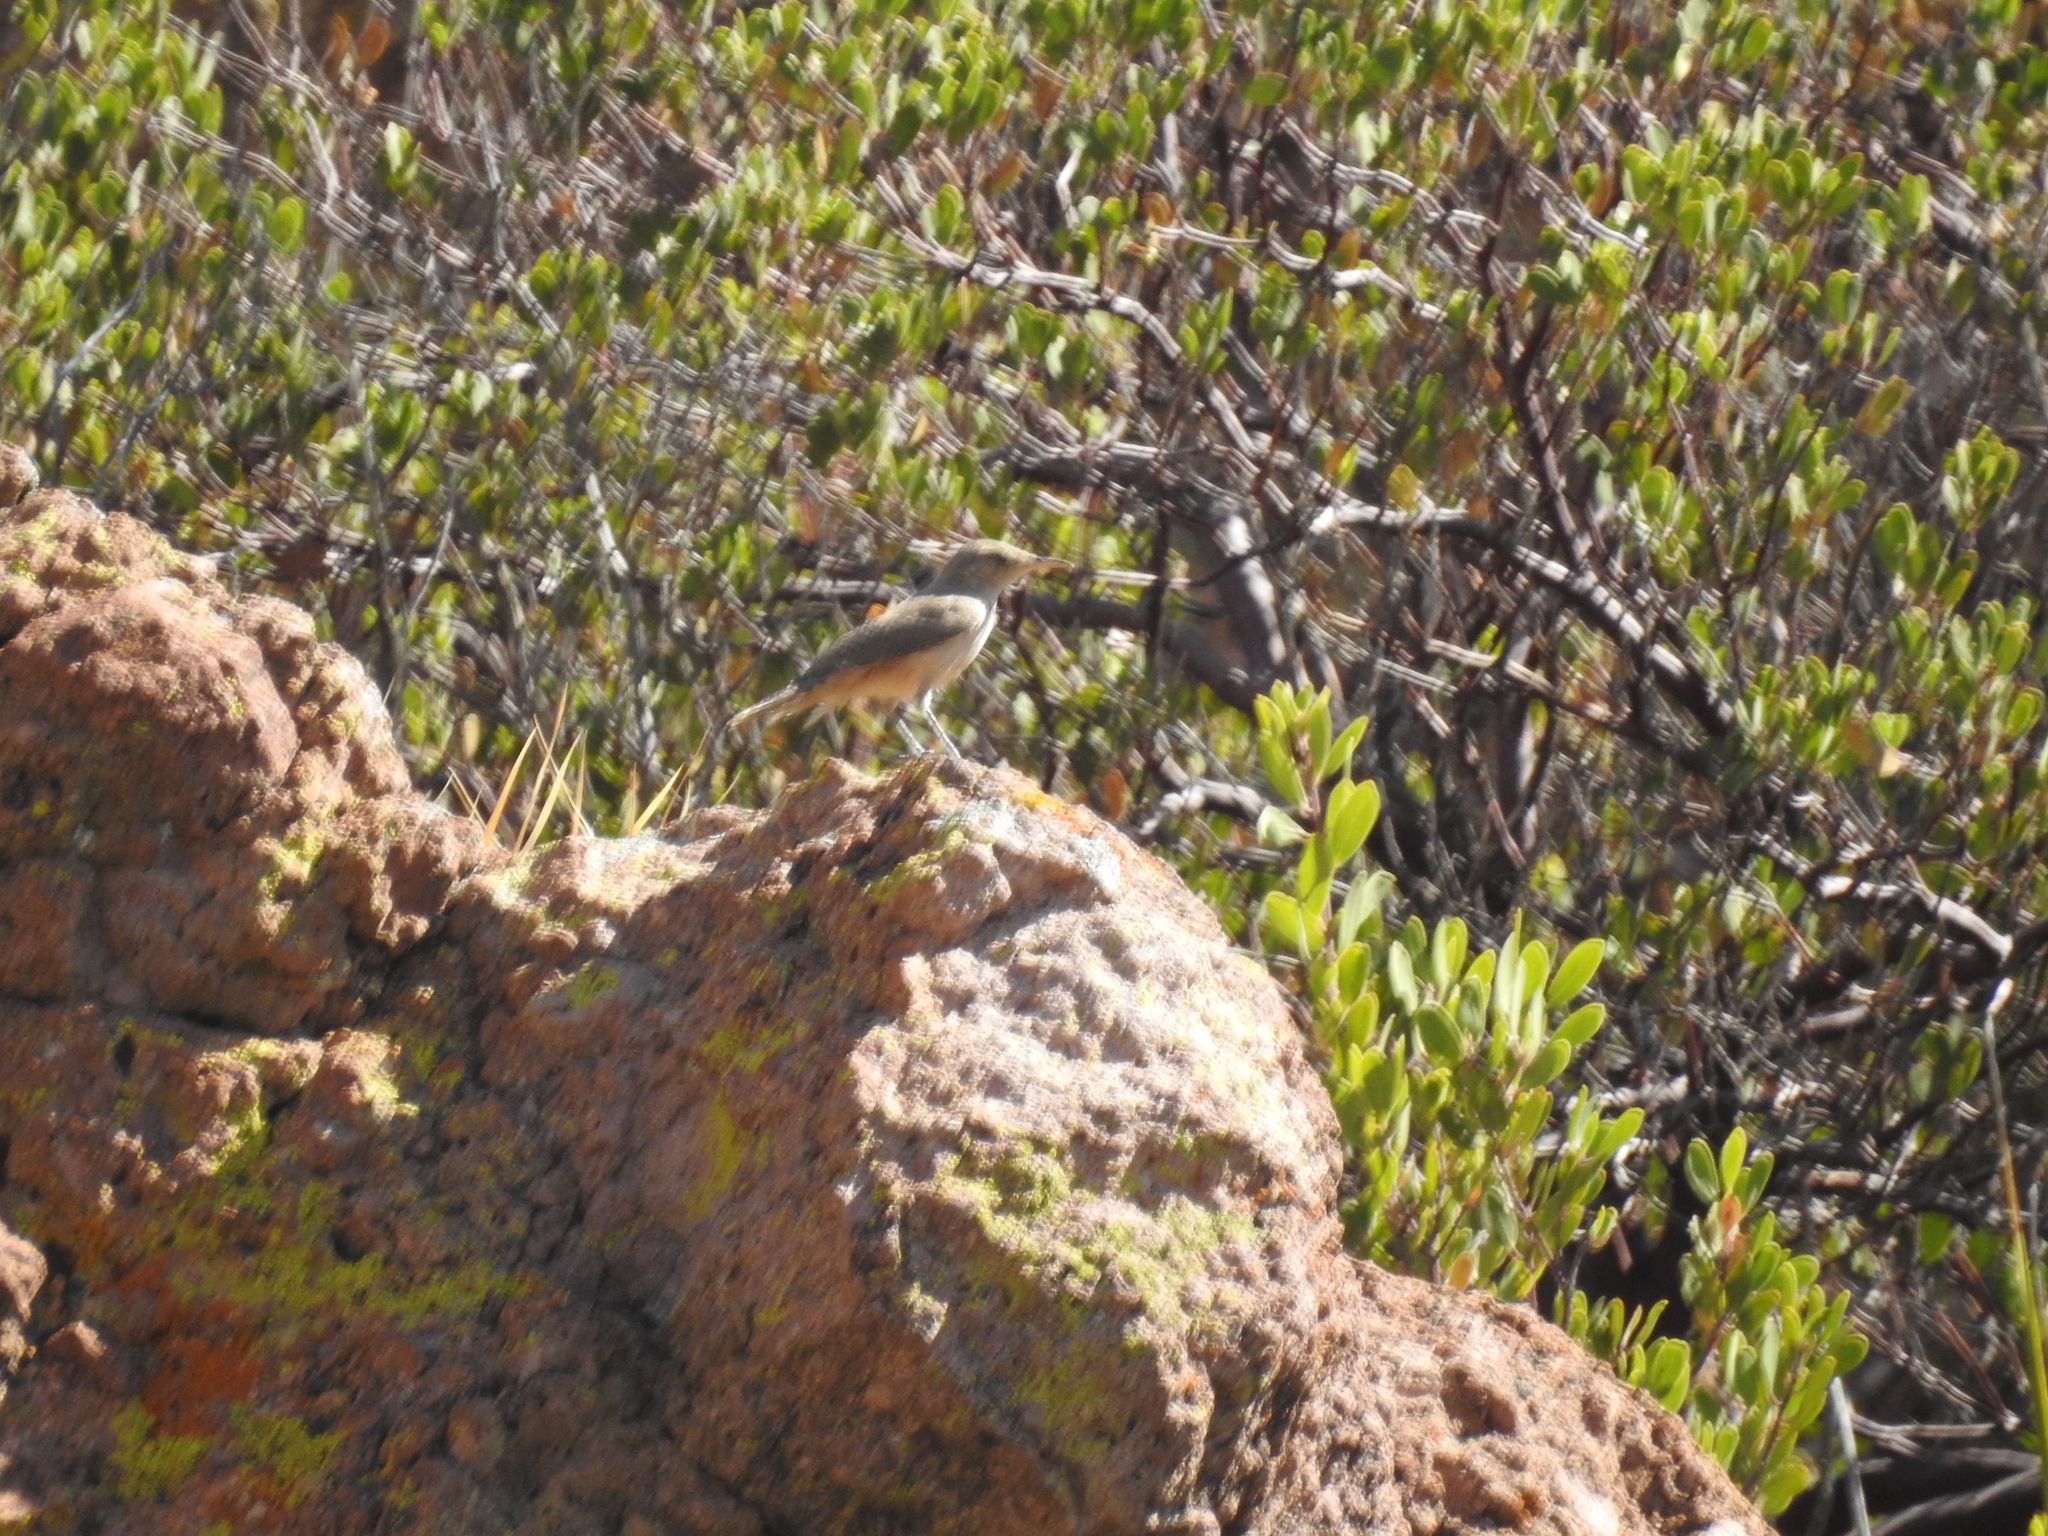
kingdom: Animalia
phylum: Chordata
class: Aves
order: Passeriformes
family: Troglodytidae
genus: Salpinctes
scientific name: Salpinctes obsoletus
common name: Rock wren
